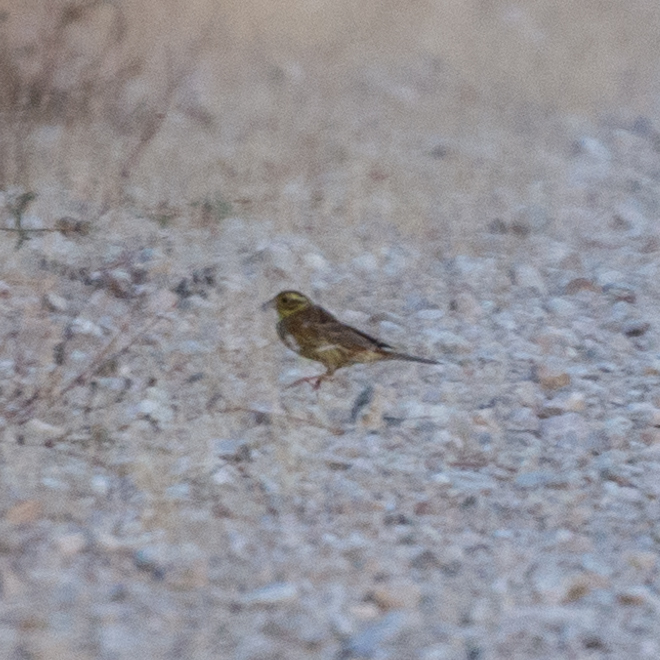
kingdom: Animalia
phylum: Chordata
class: Aves
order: Passeriformes
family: Emberizidae
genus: Emberiza
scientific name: Emberiza cirlus
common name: Cirl bunting
